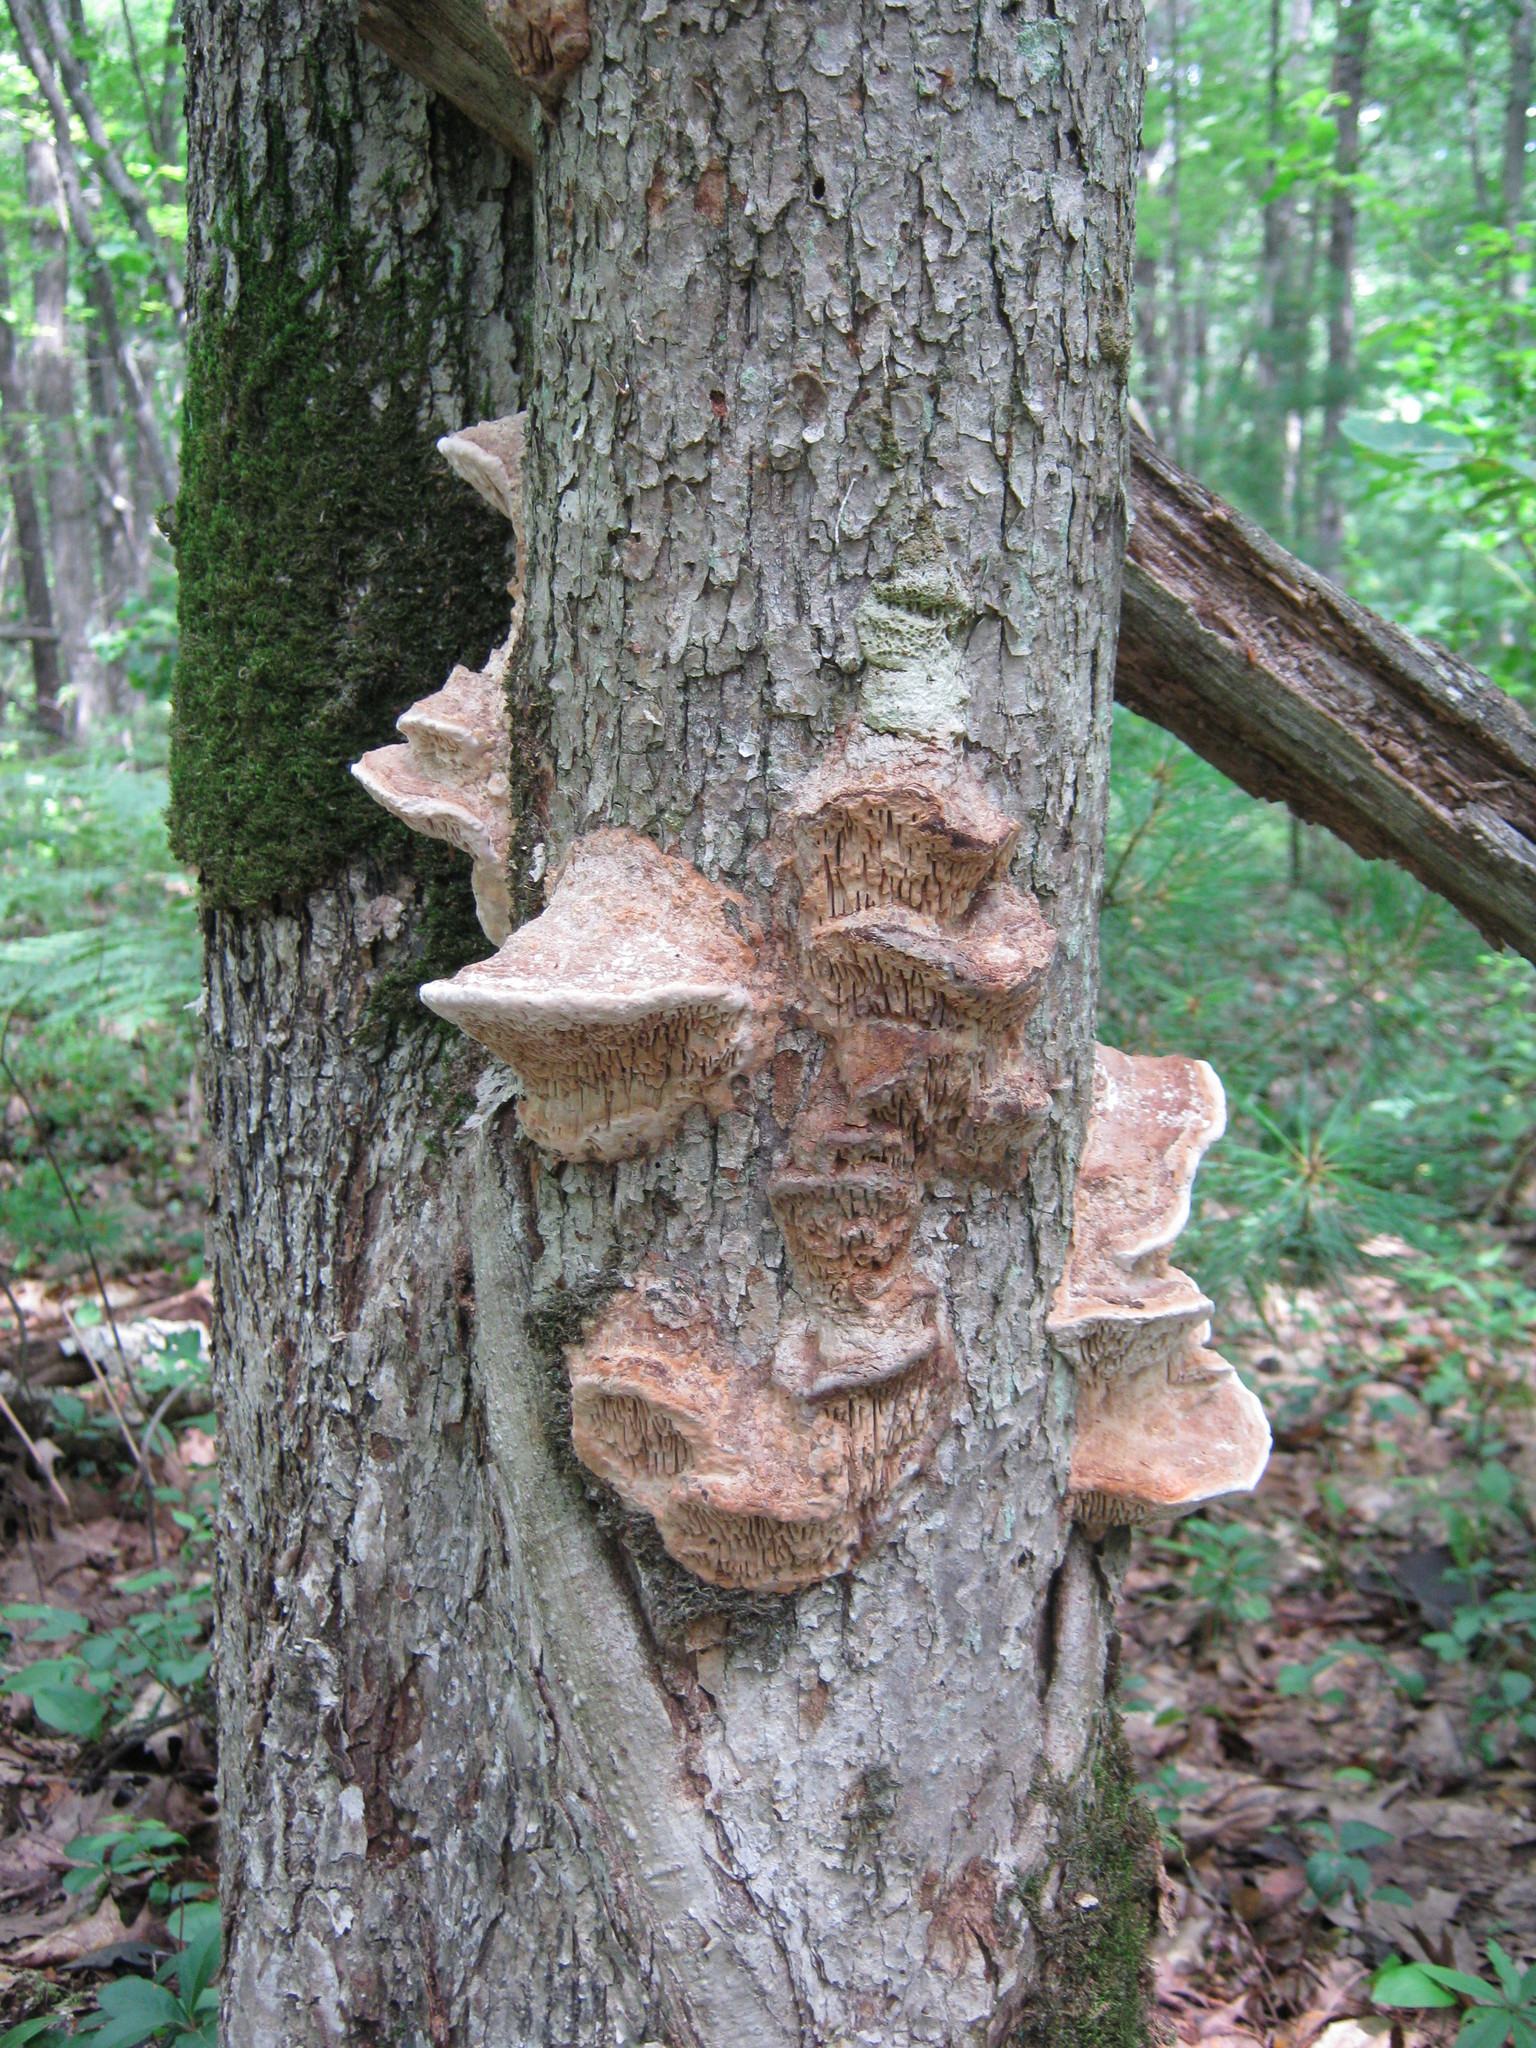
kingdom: Fungi
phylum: Basidiomycota
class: Agaricomycetes
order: Polyporales
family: Fomitopsidaceae
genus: Fomitopsis
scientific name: Fomitopsis
